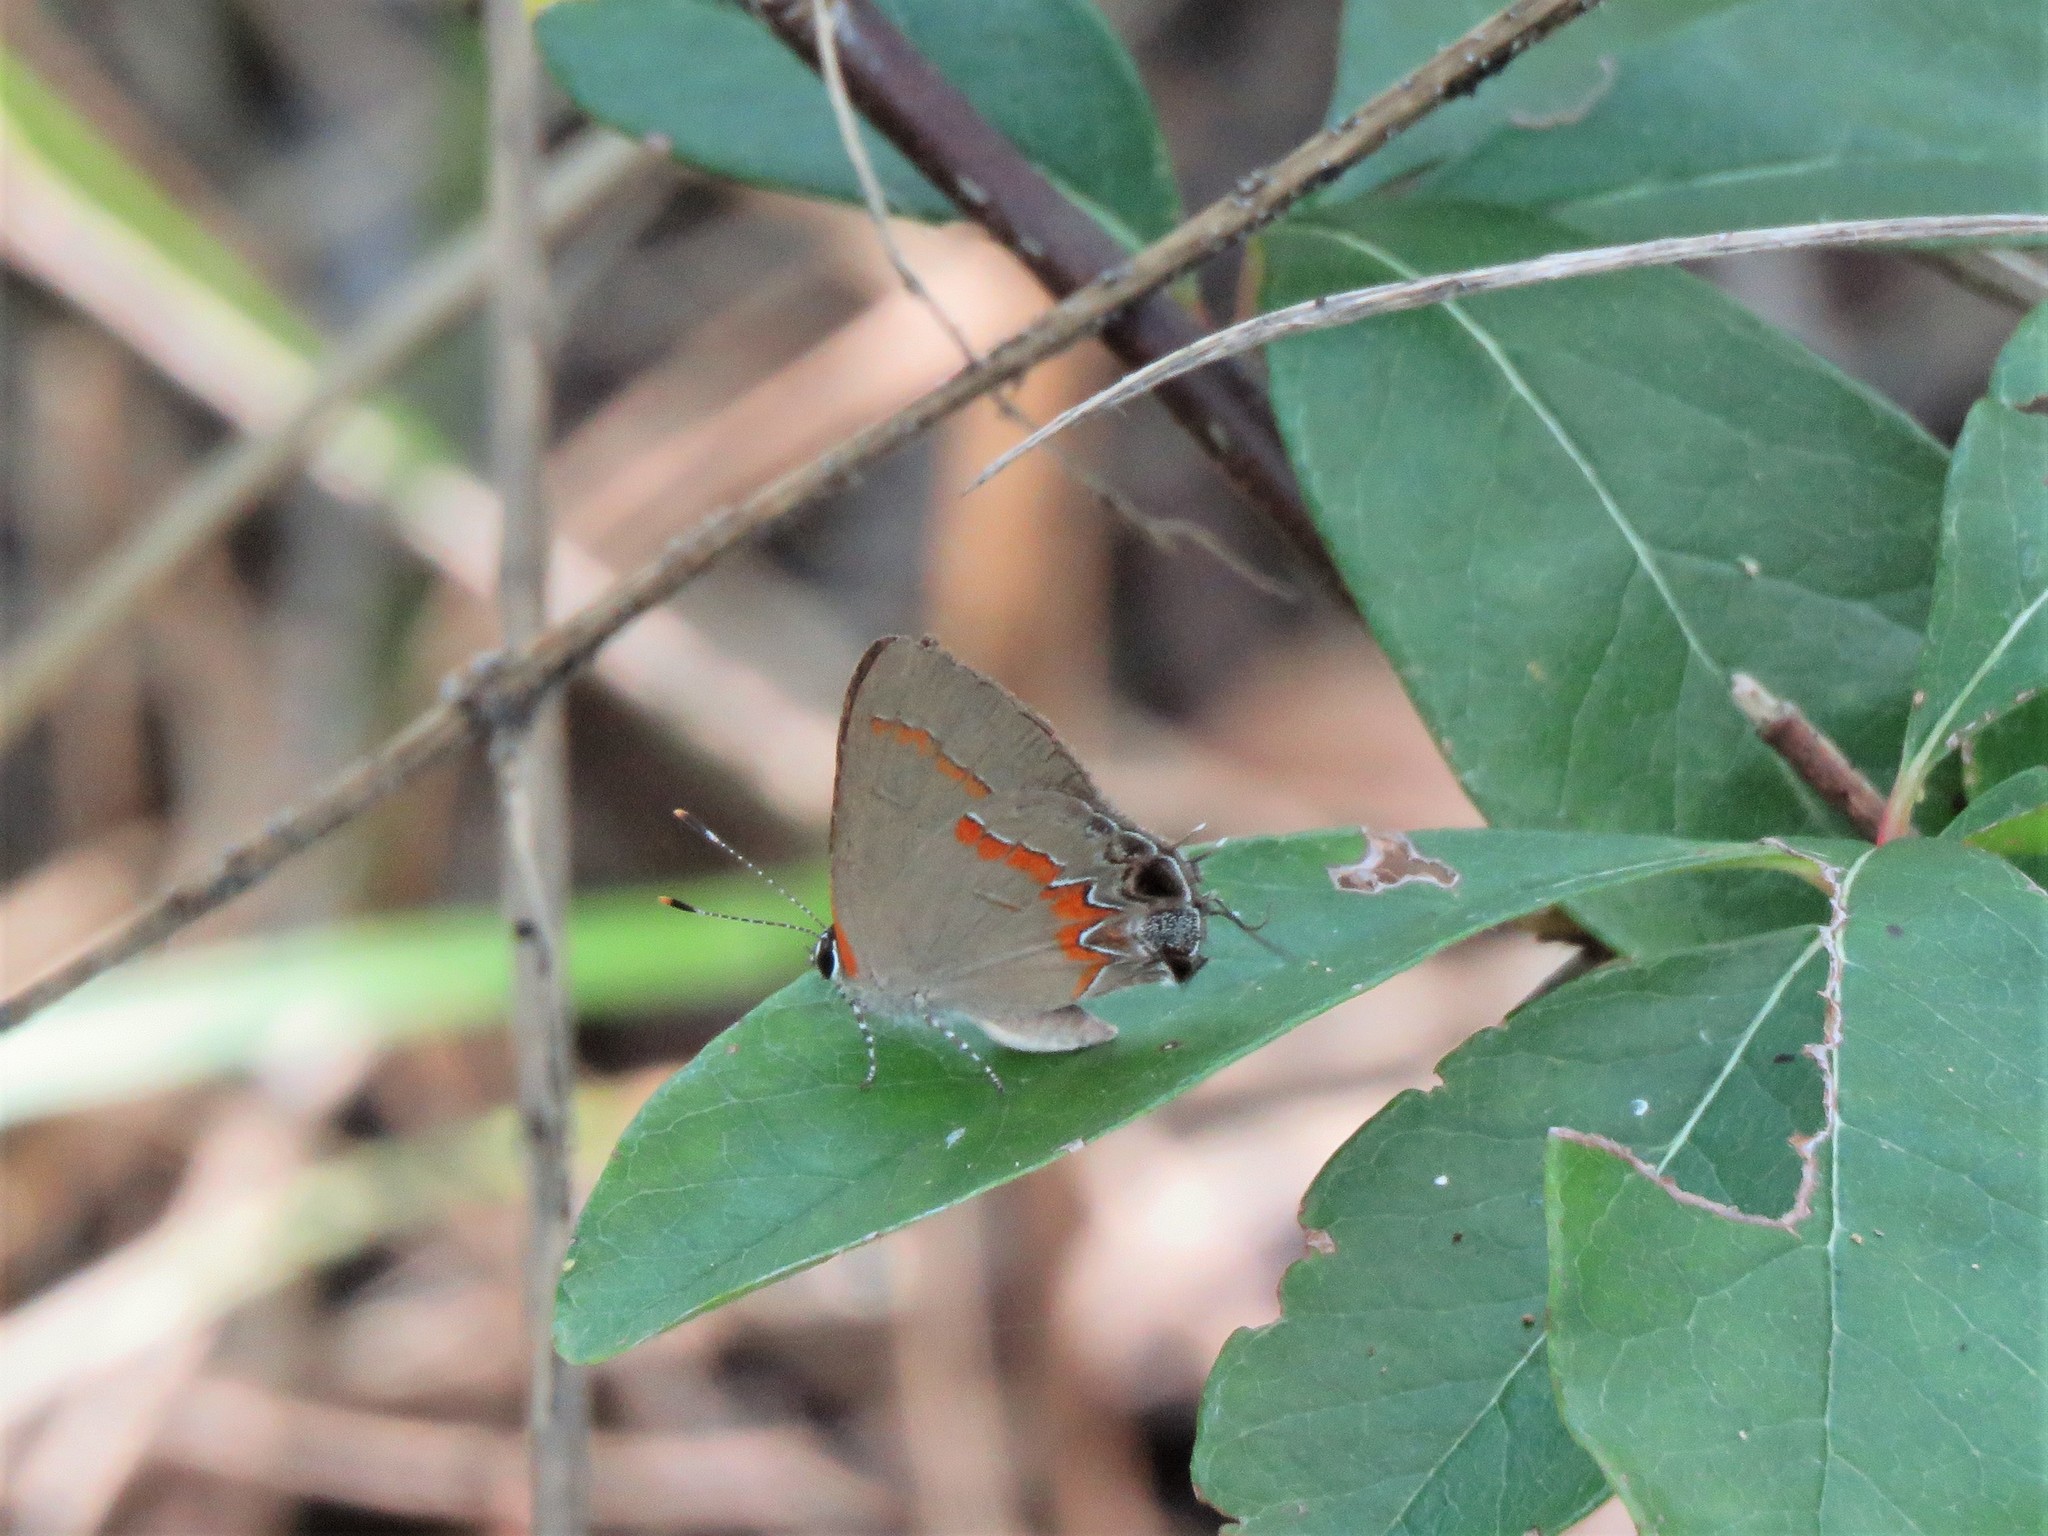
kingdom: Animalia
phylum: Arthropoda
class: Insecta
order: Lepidoptera
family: Lycaenidae
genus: Calycopis
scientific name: Calycopis cecrops
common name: Red-banded hairstreak
